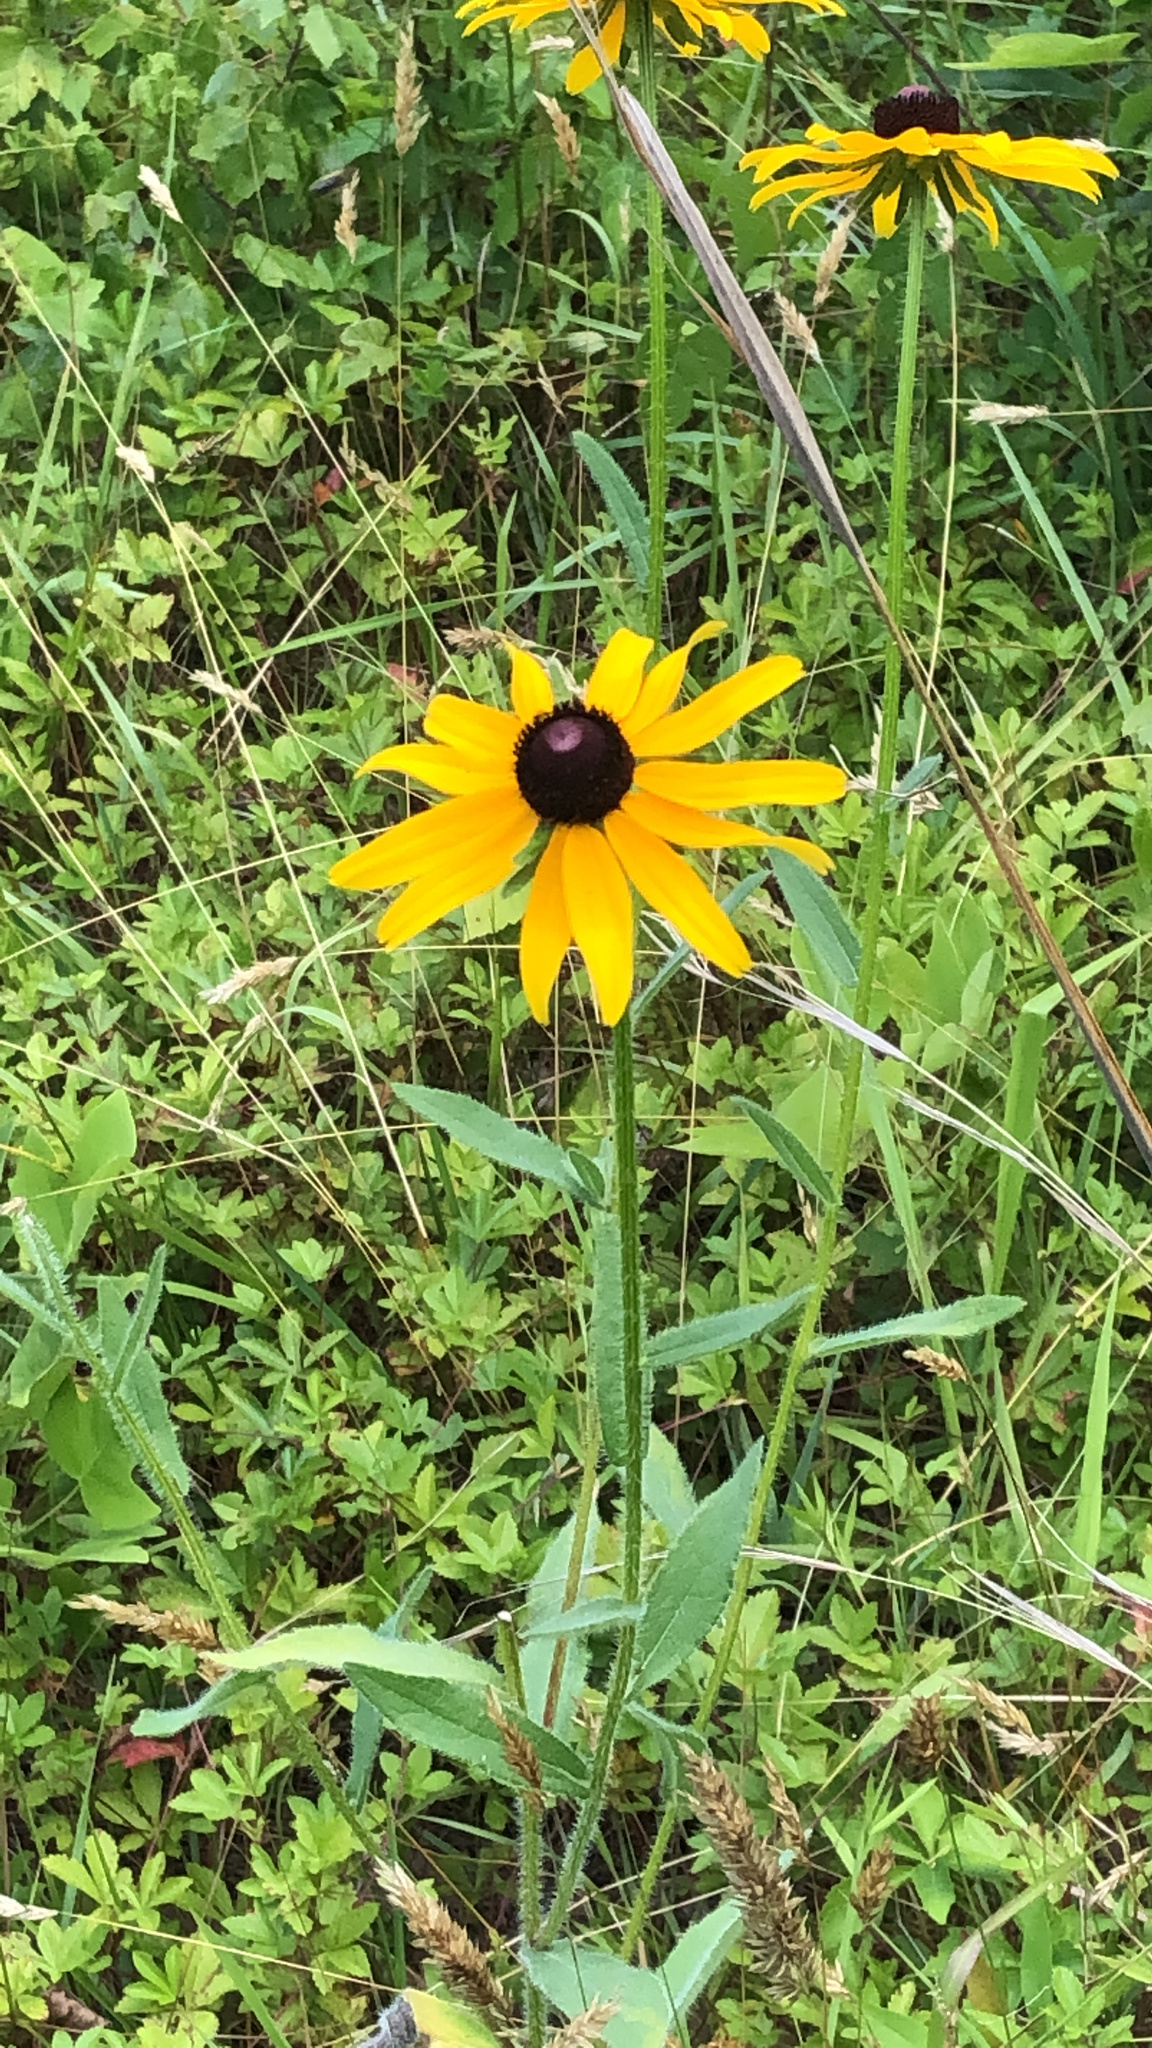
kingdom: Plantae
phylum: Tracheophyta
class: Magnoliopsida
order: Asterales
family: Asteraceae
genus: Rudbeckia
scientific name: Rudbeckia hirta
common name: Black-eyed-susan
